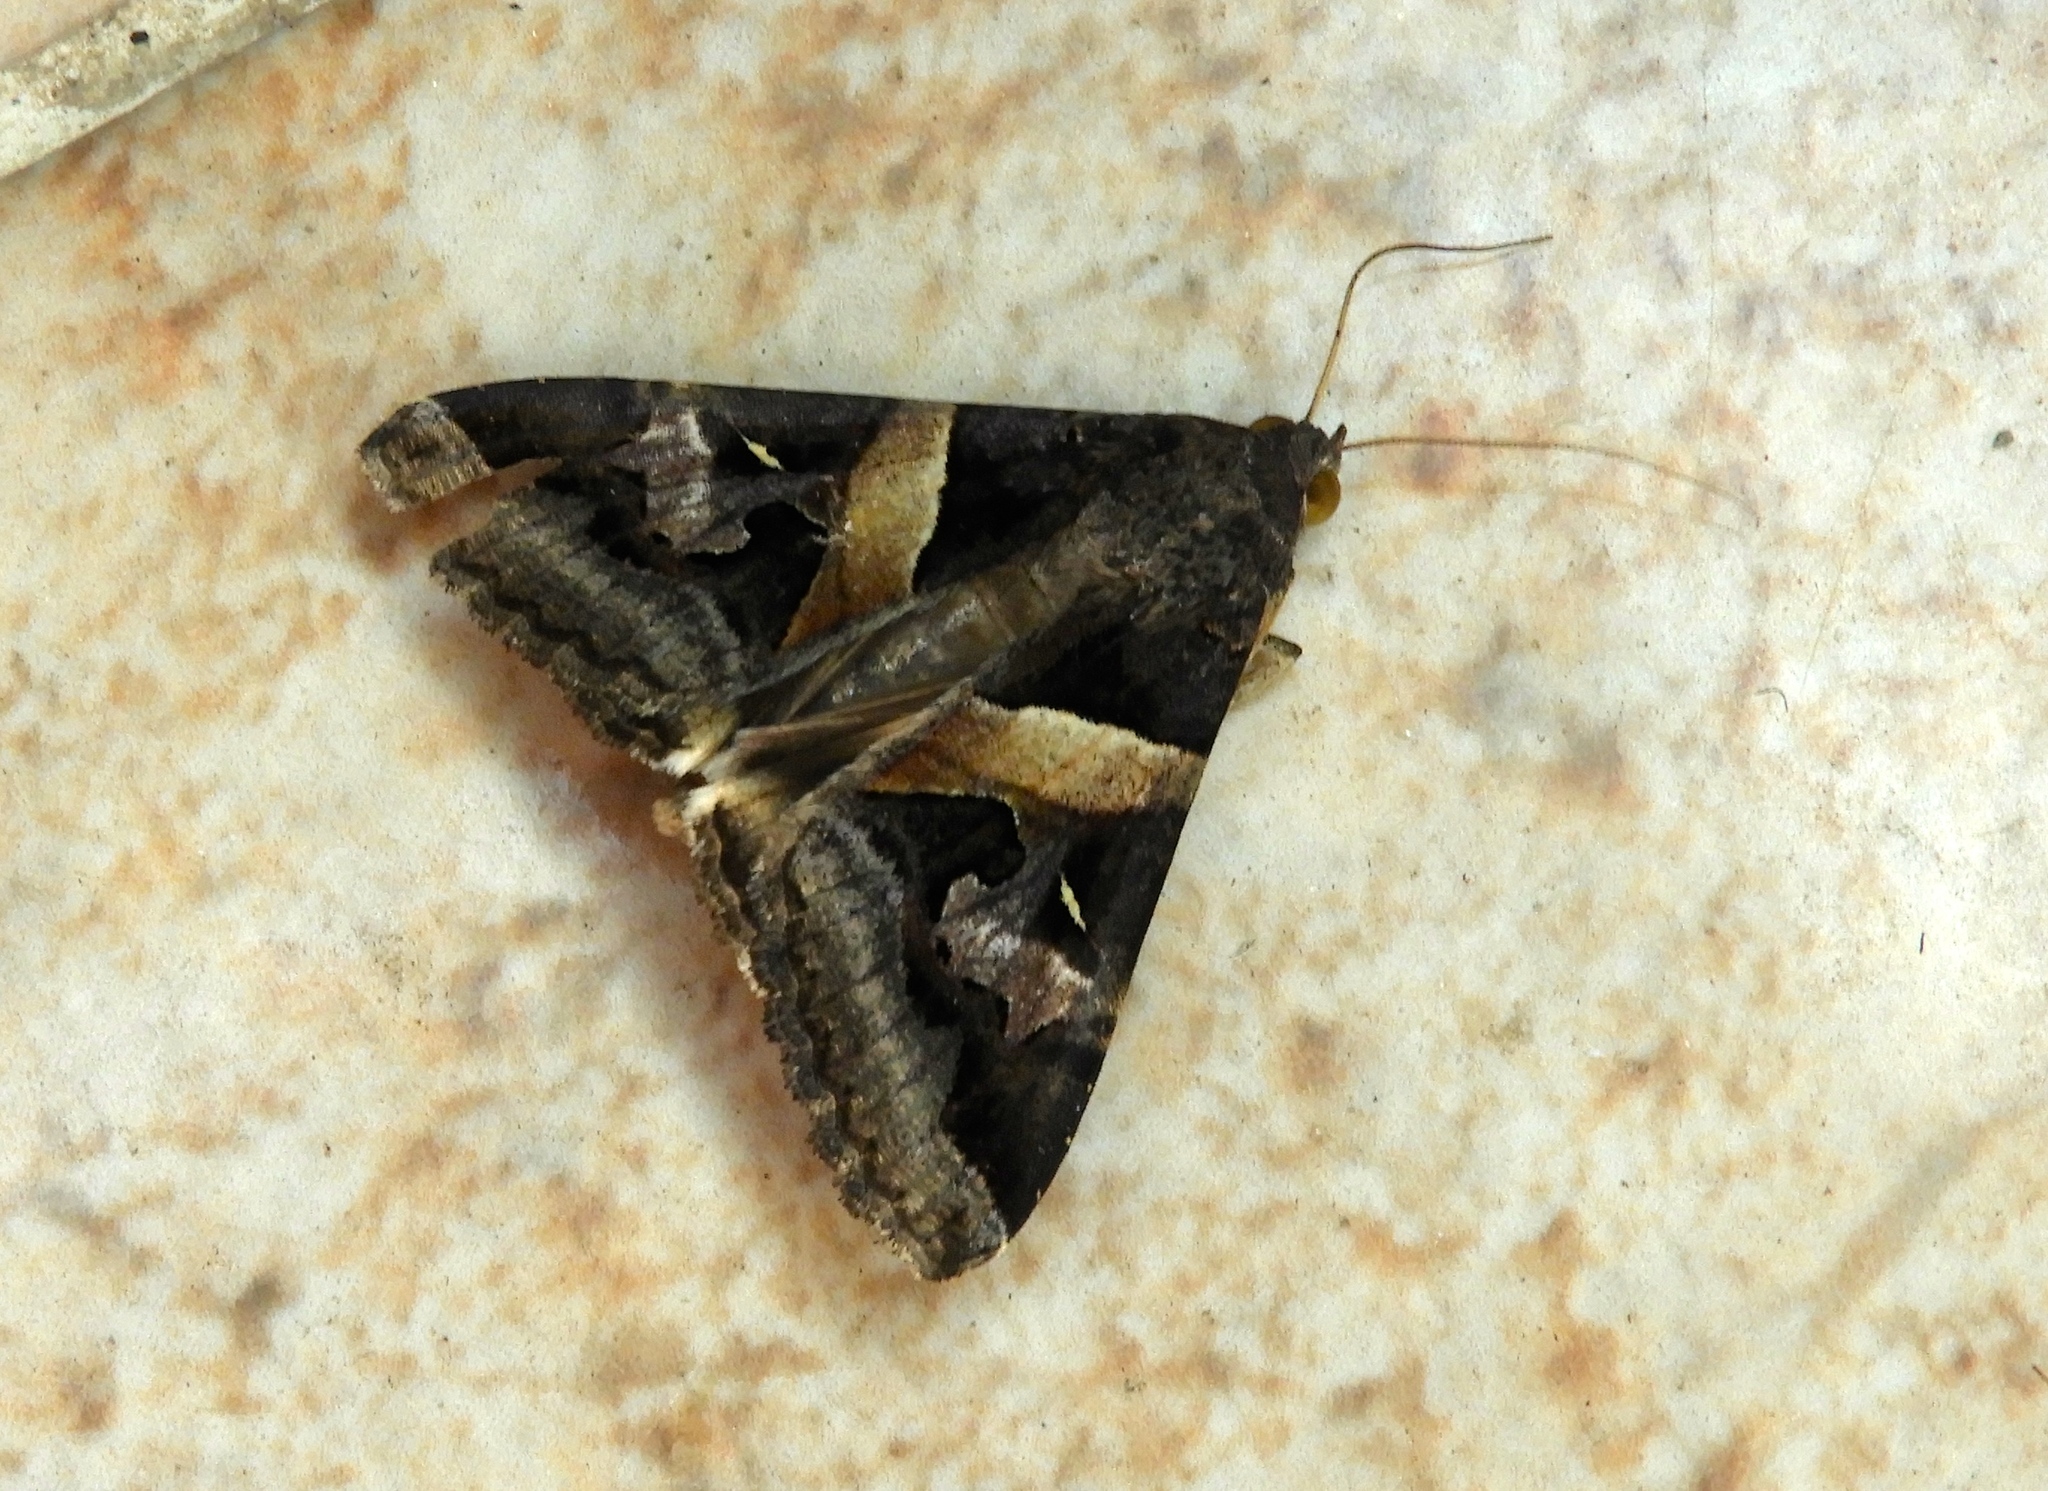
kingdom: Animalia
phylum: Arthropoda
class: Insecta
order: Lepidoptera
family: Erebidae
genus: Melipotis
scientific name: Melipotis perpendicularis
